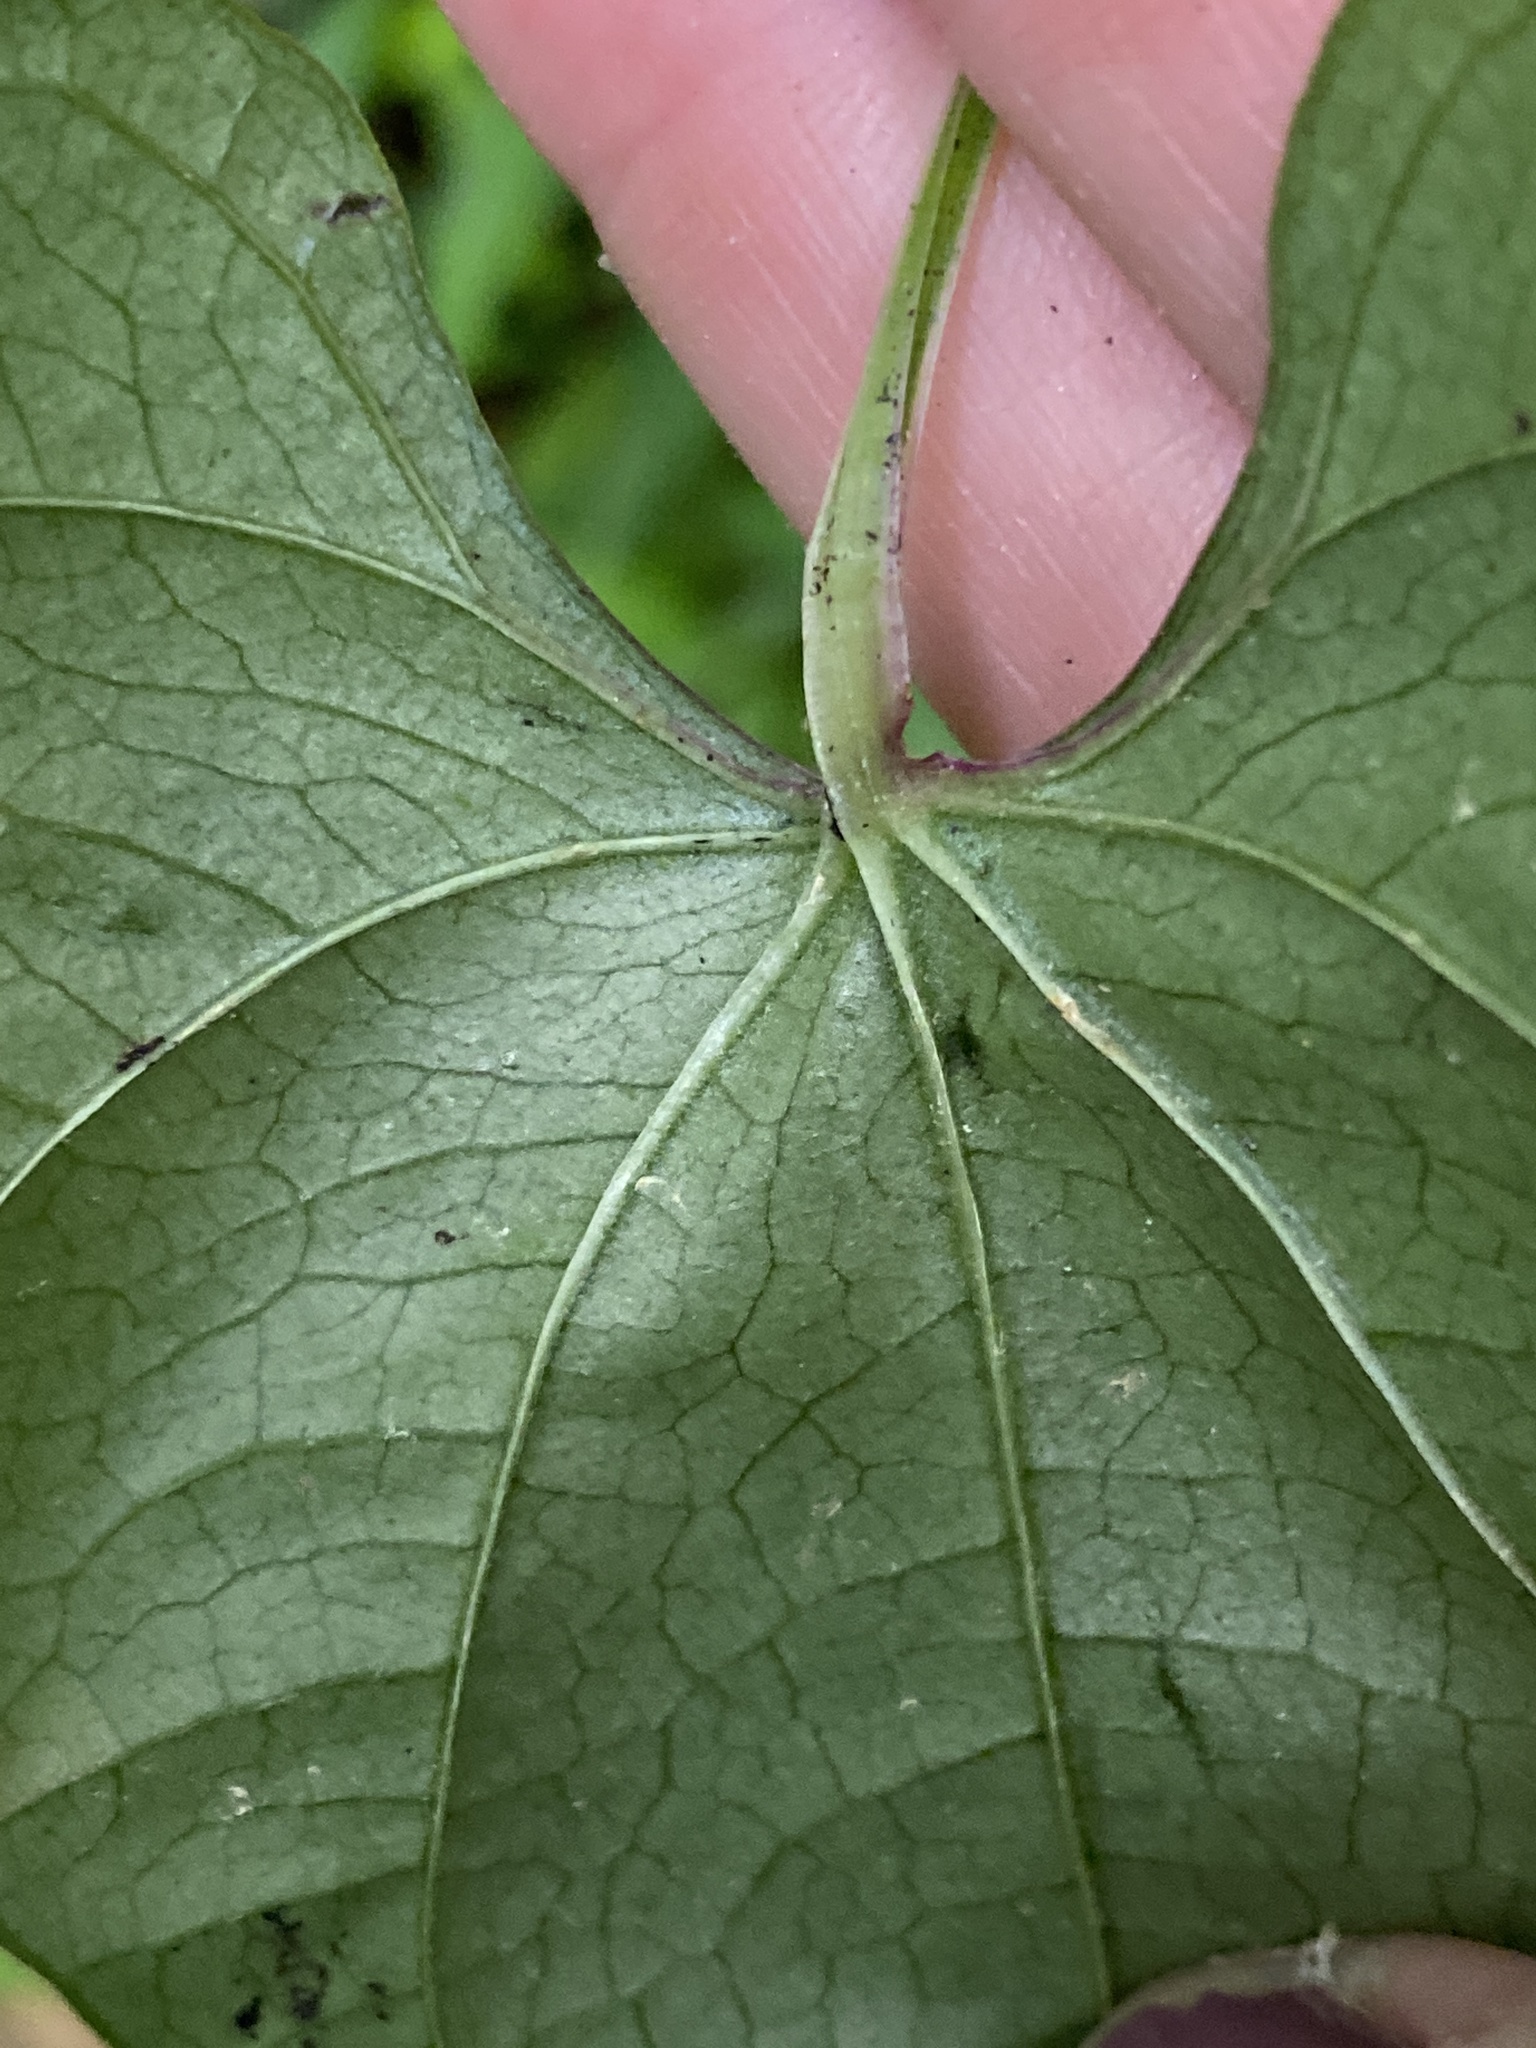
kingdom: Plantae
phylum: Tracheophyta
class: Liliopsida
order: Dioscoreales
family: Dioscoreaceae
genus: Dioscorea
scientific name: Dioscorea polystachya
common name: Chinese yam
